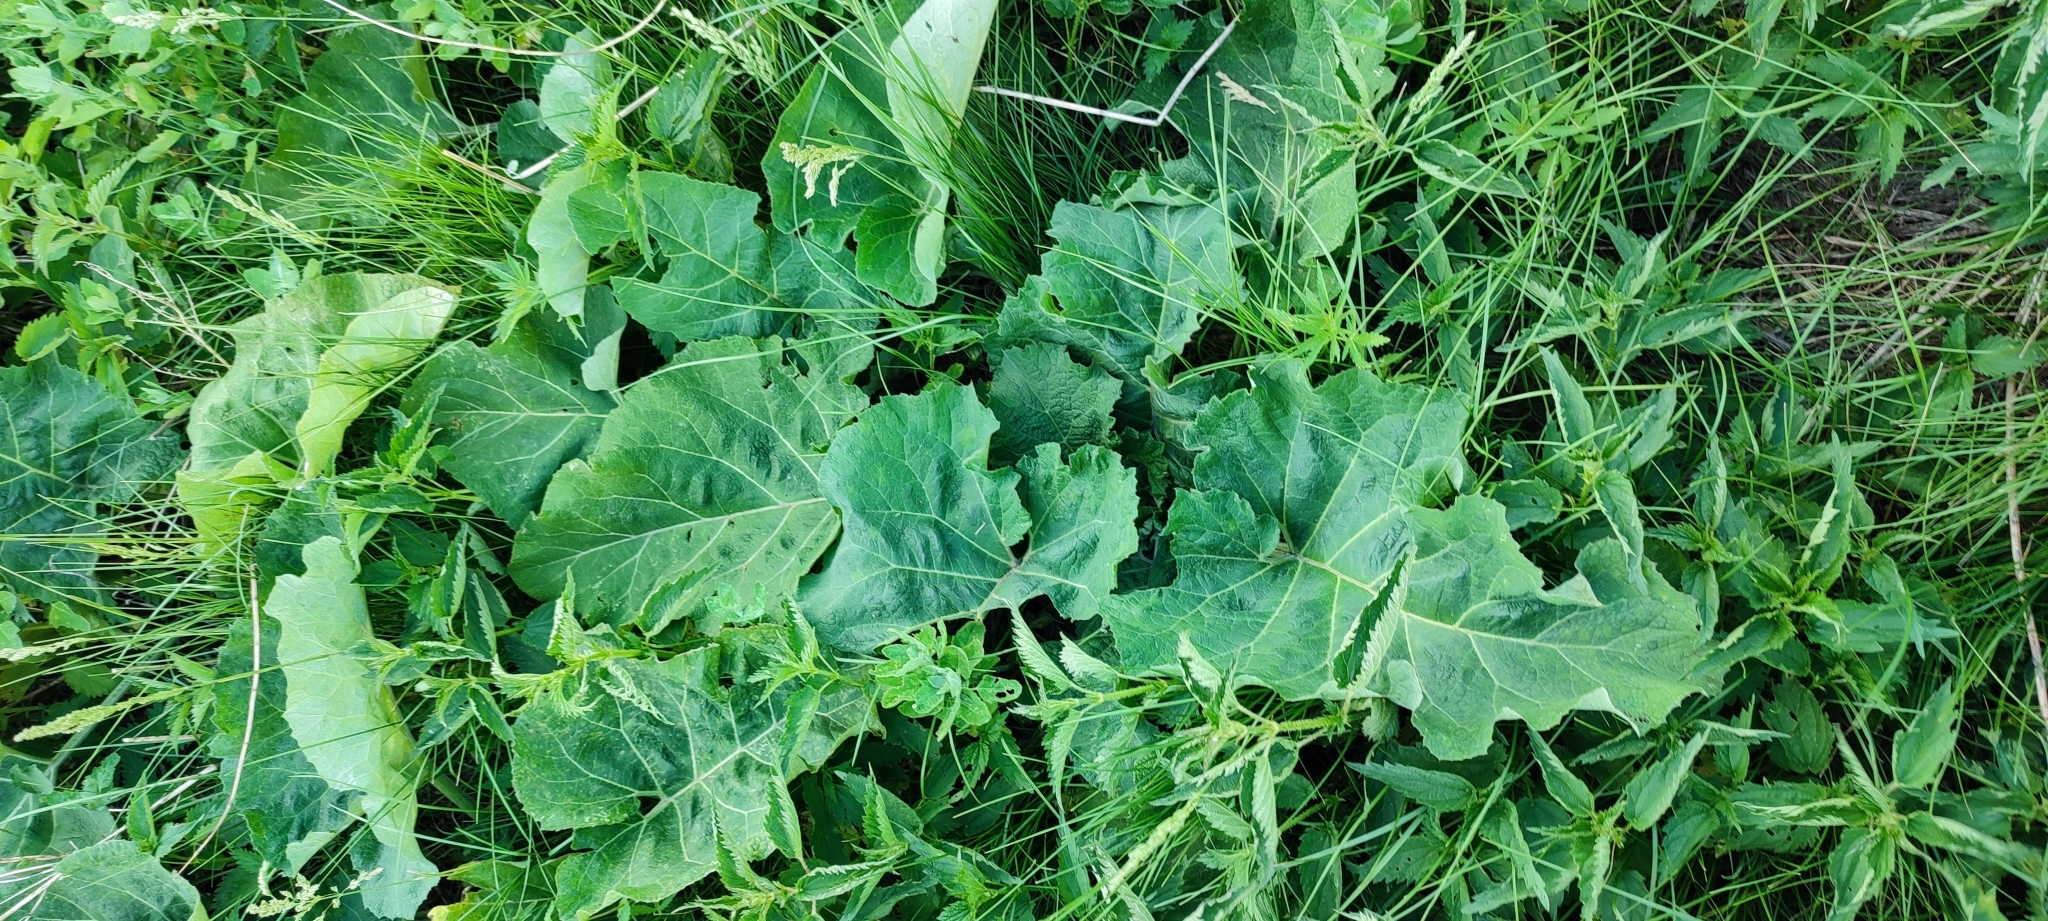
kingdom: Plantae
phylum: Tracheophyta
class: Magnoliopsida
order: Asterales
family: Asteraceae
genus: Arctium
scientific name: Arctium tomentosum
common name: Woolly burdock
